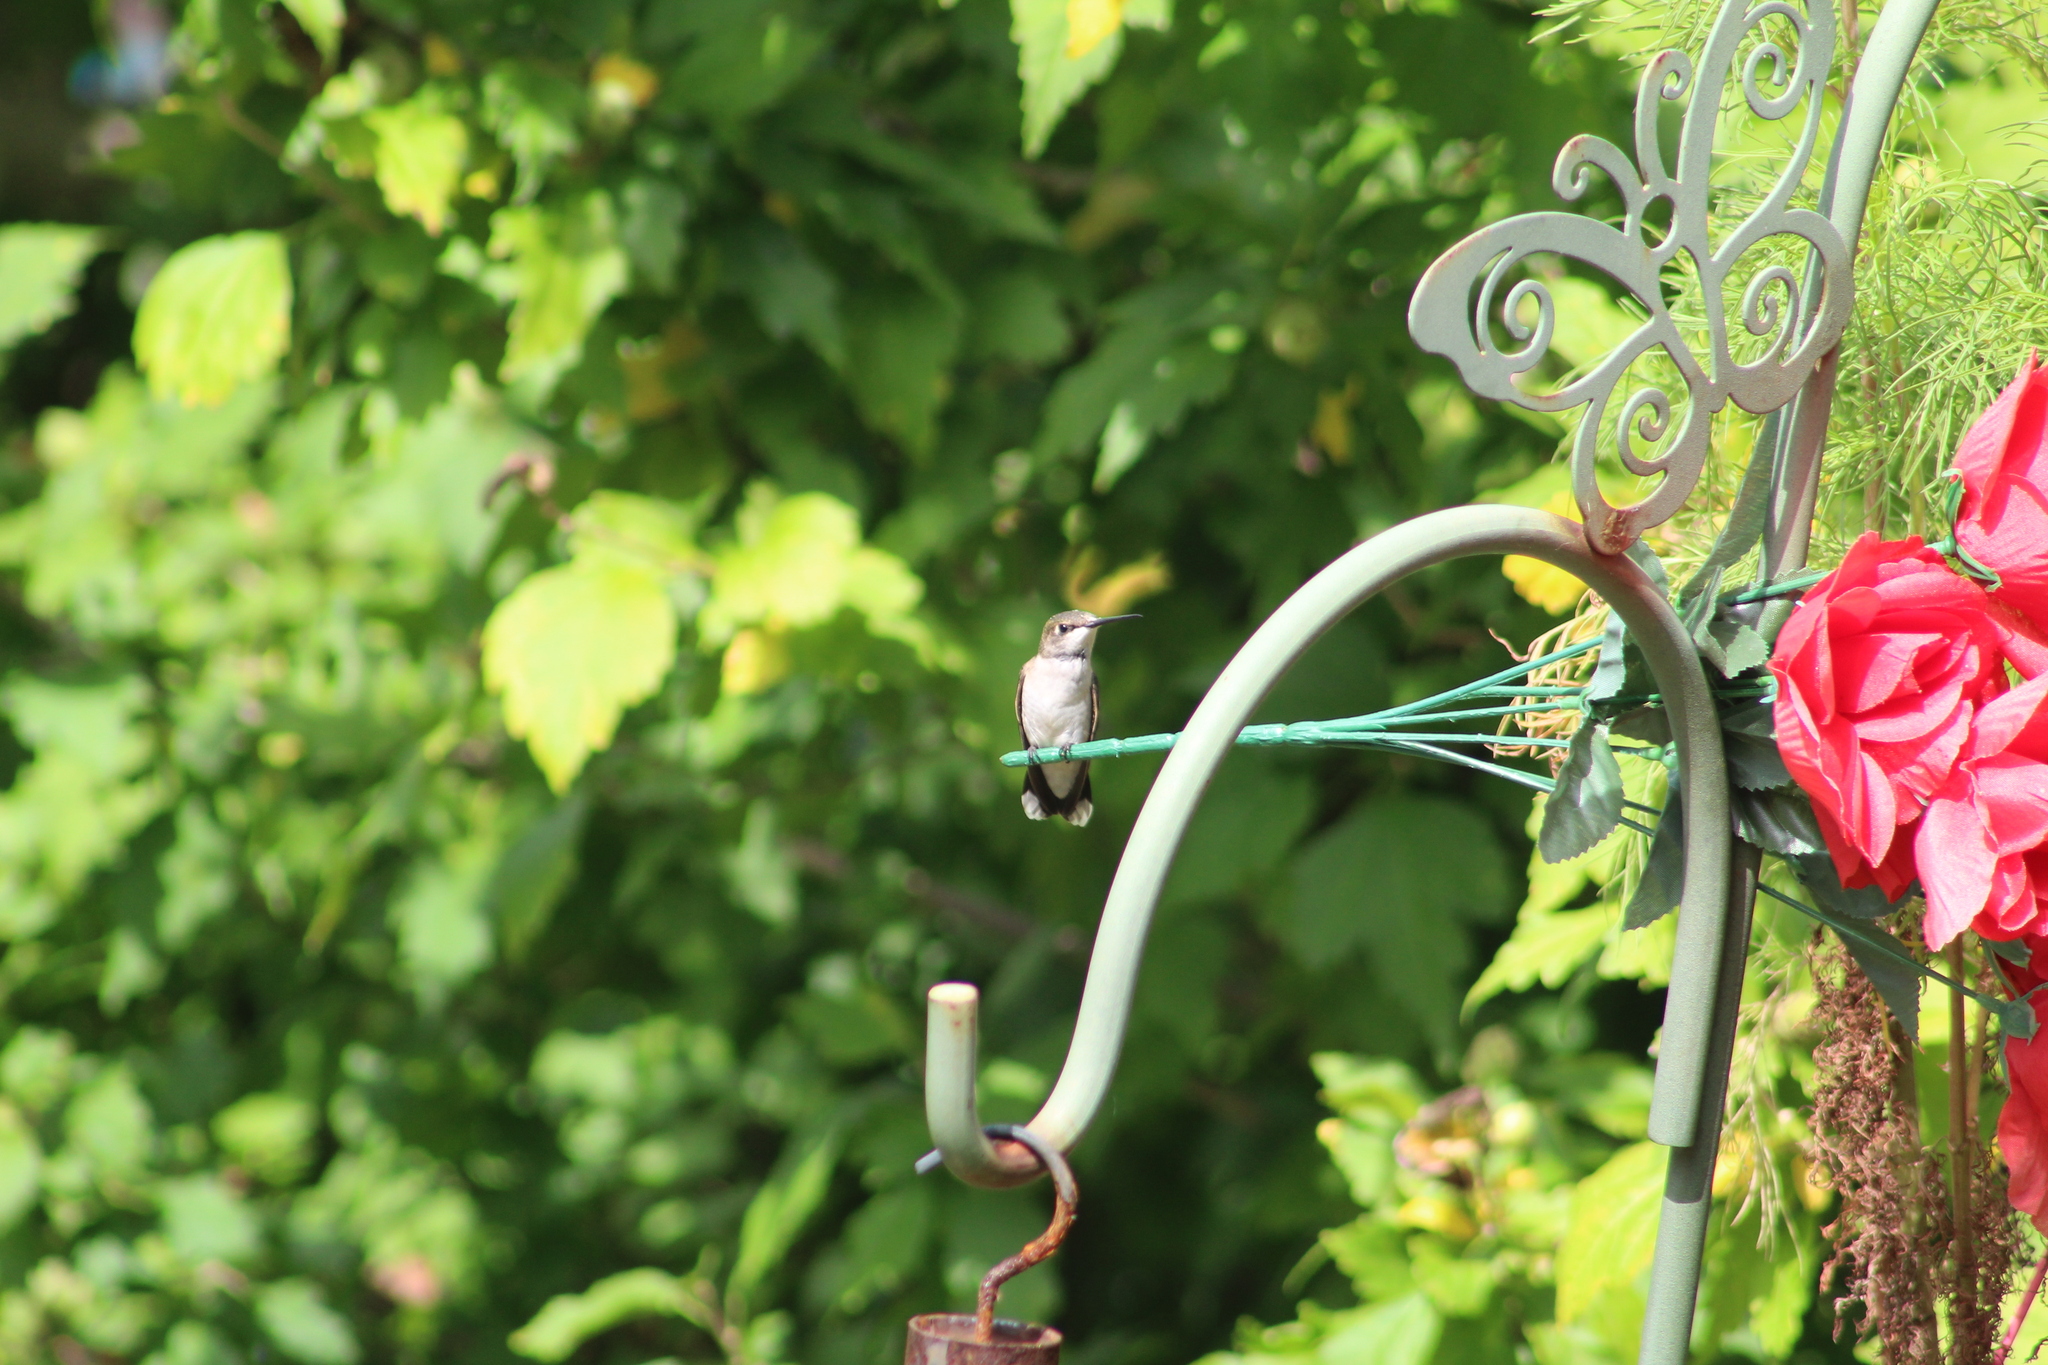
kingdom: Animalia
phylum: Chordata
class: Aves
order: Apodiformes
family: Trochilidae
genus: Archilochus
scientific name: Archilochus colubris
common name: Ruby-throated hummingbird
